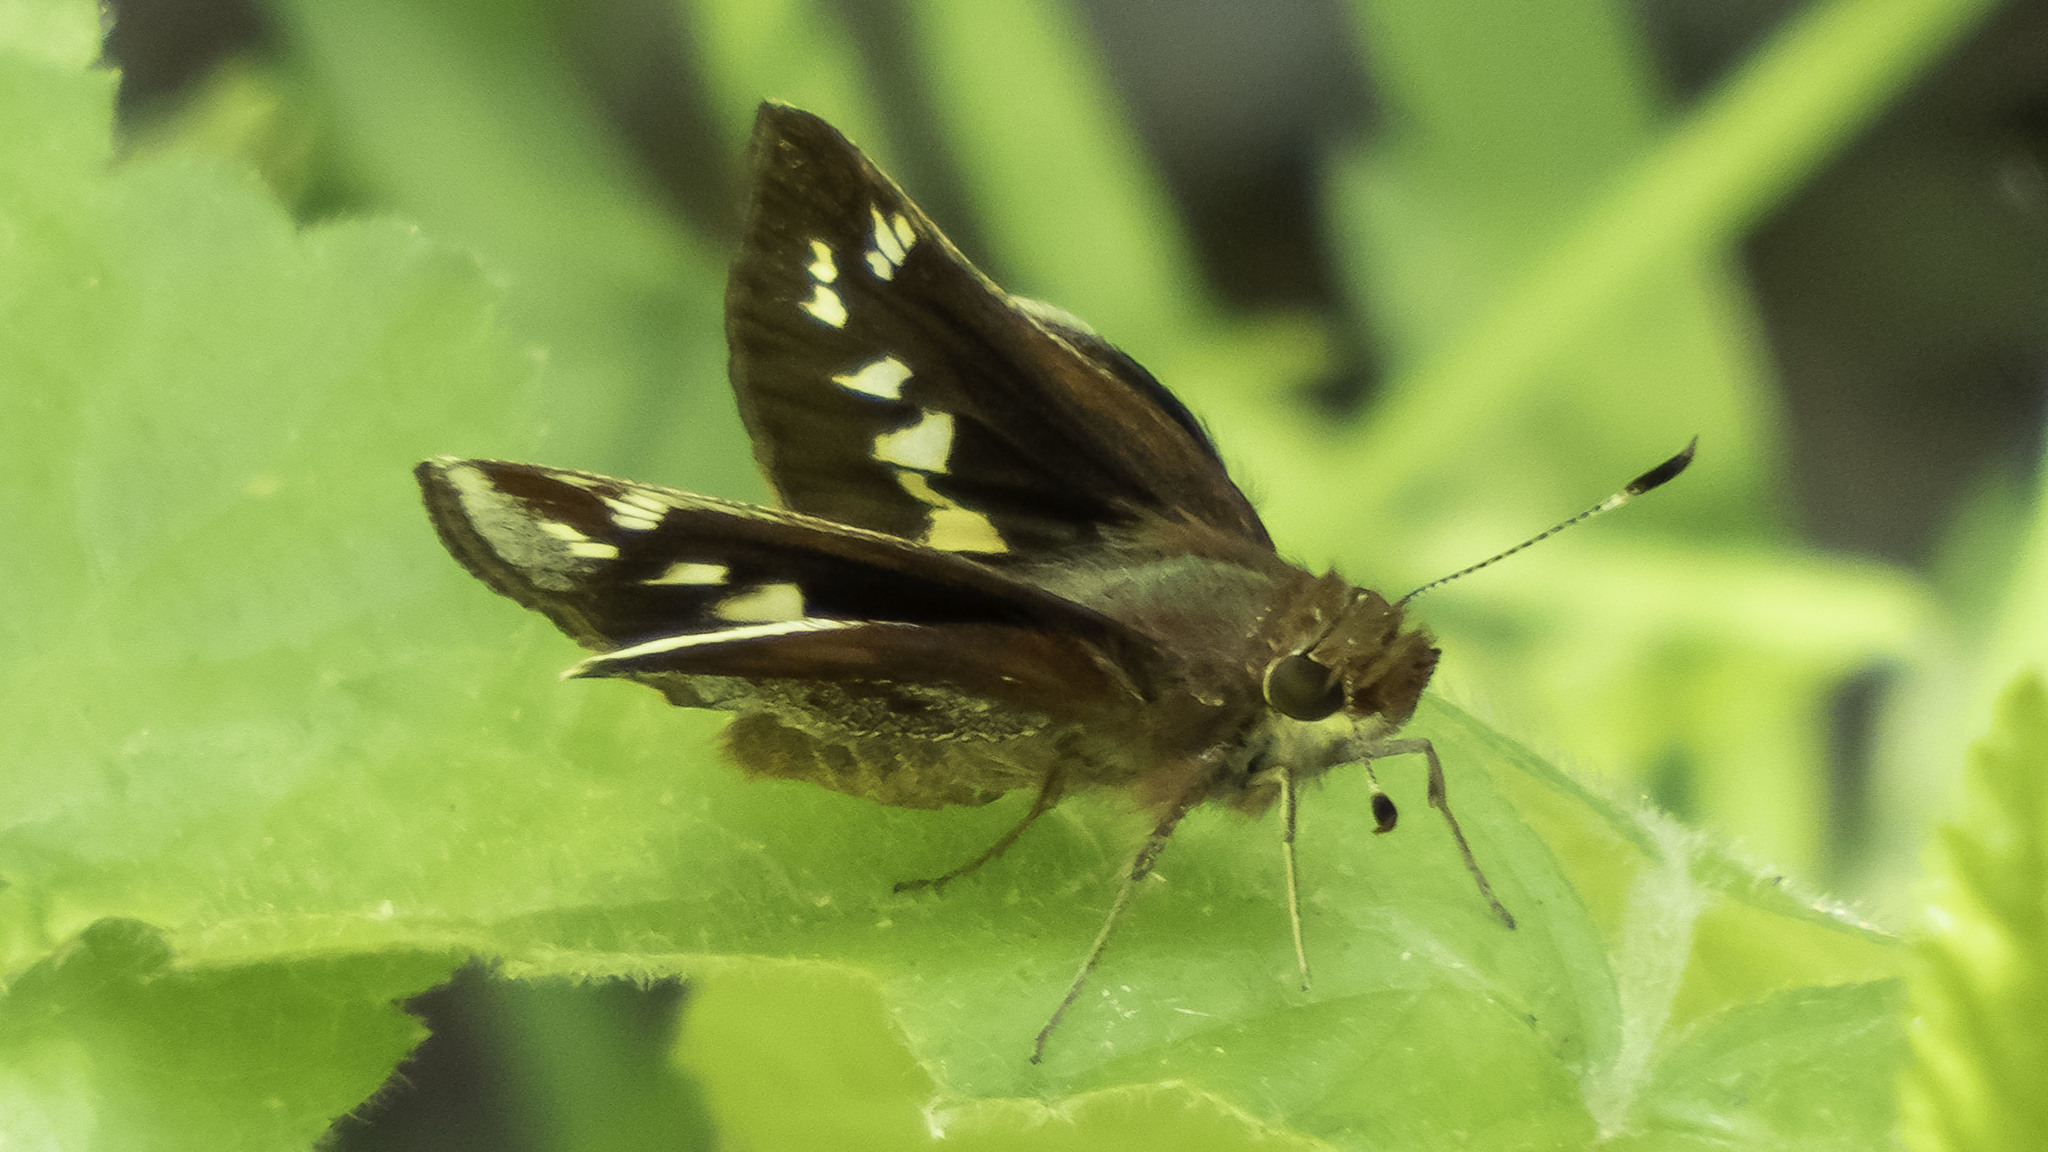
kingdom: Animalia
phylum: Arthropoda
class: Insecta
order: Lepidoptera
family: Hesperiidae
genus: Lon
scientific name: Lon zabulon
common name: Zabulon skipper
